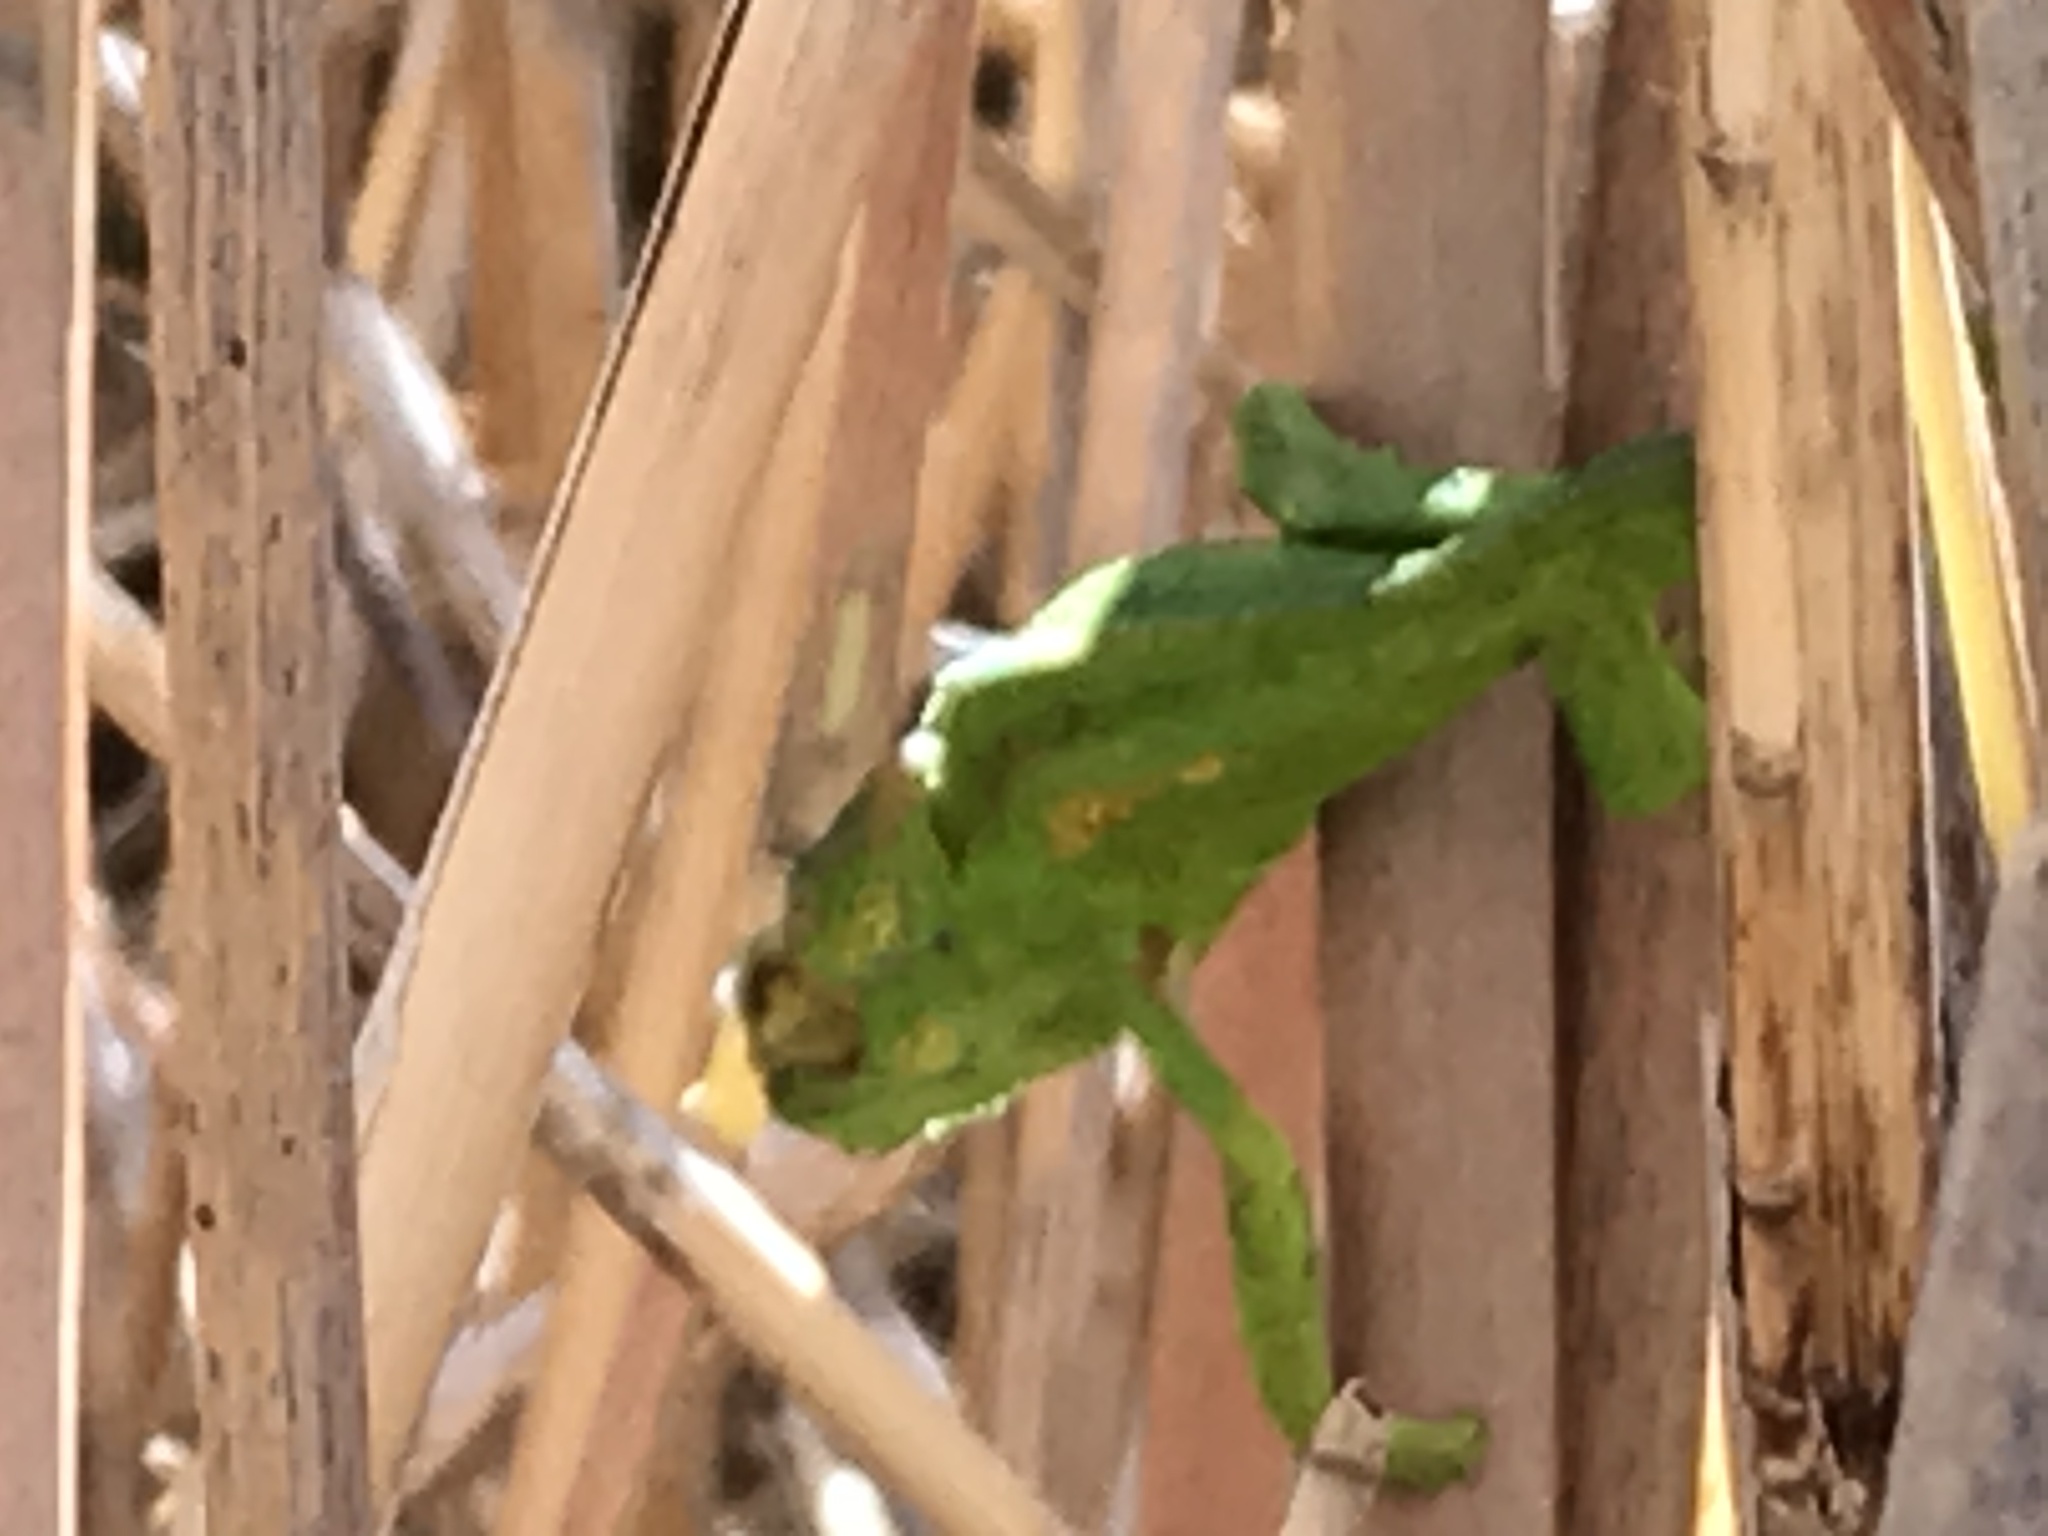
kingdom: Animalia
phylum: Chordata
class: Squamata
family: Chamaeleonidae
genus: Bradypodion
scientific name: Bradypodion pumilum
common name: Cape dwarf chameleon
